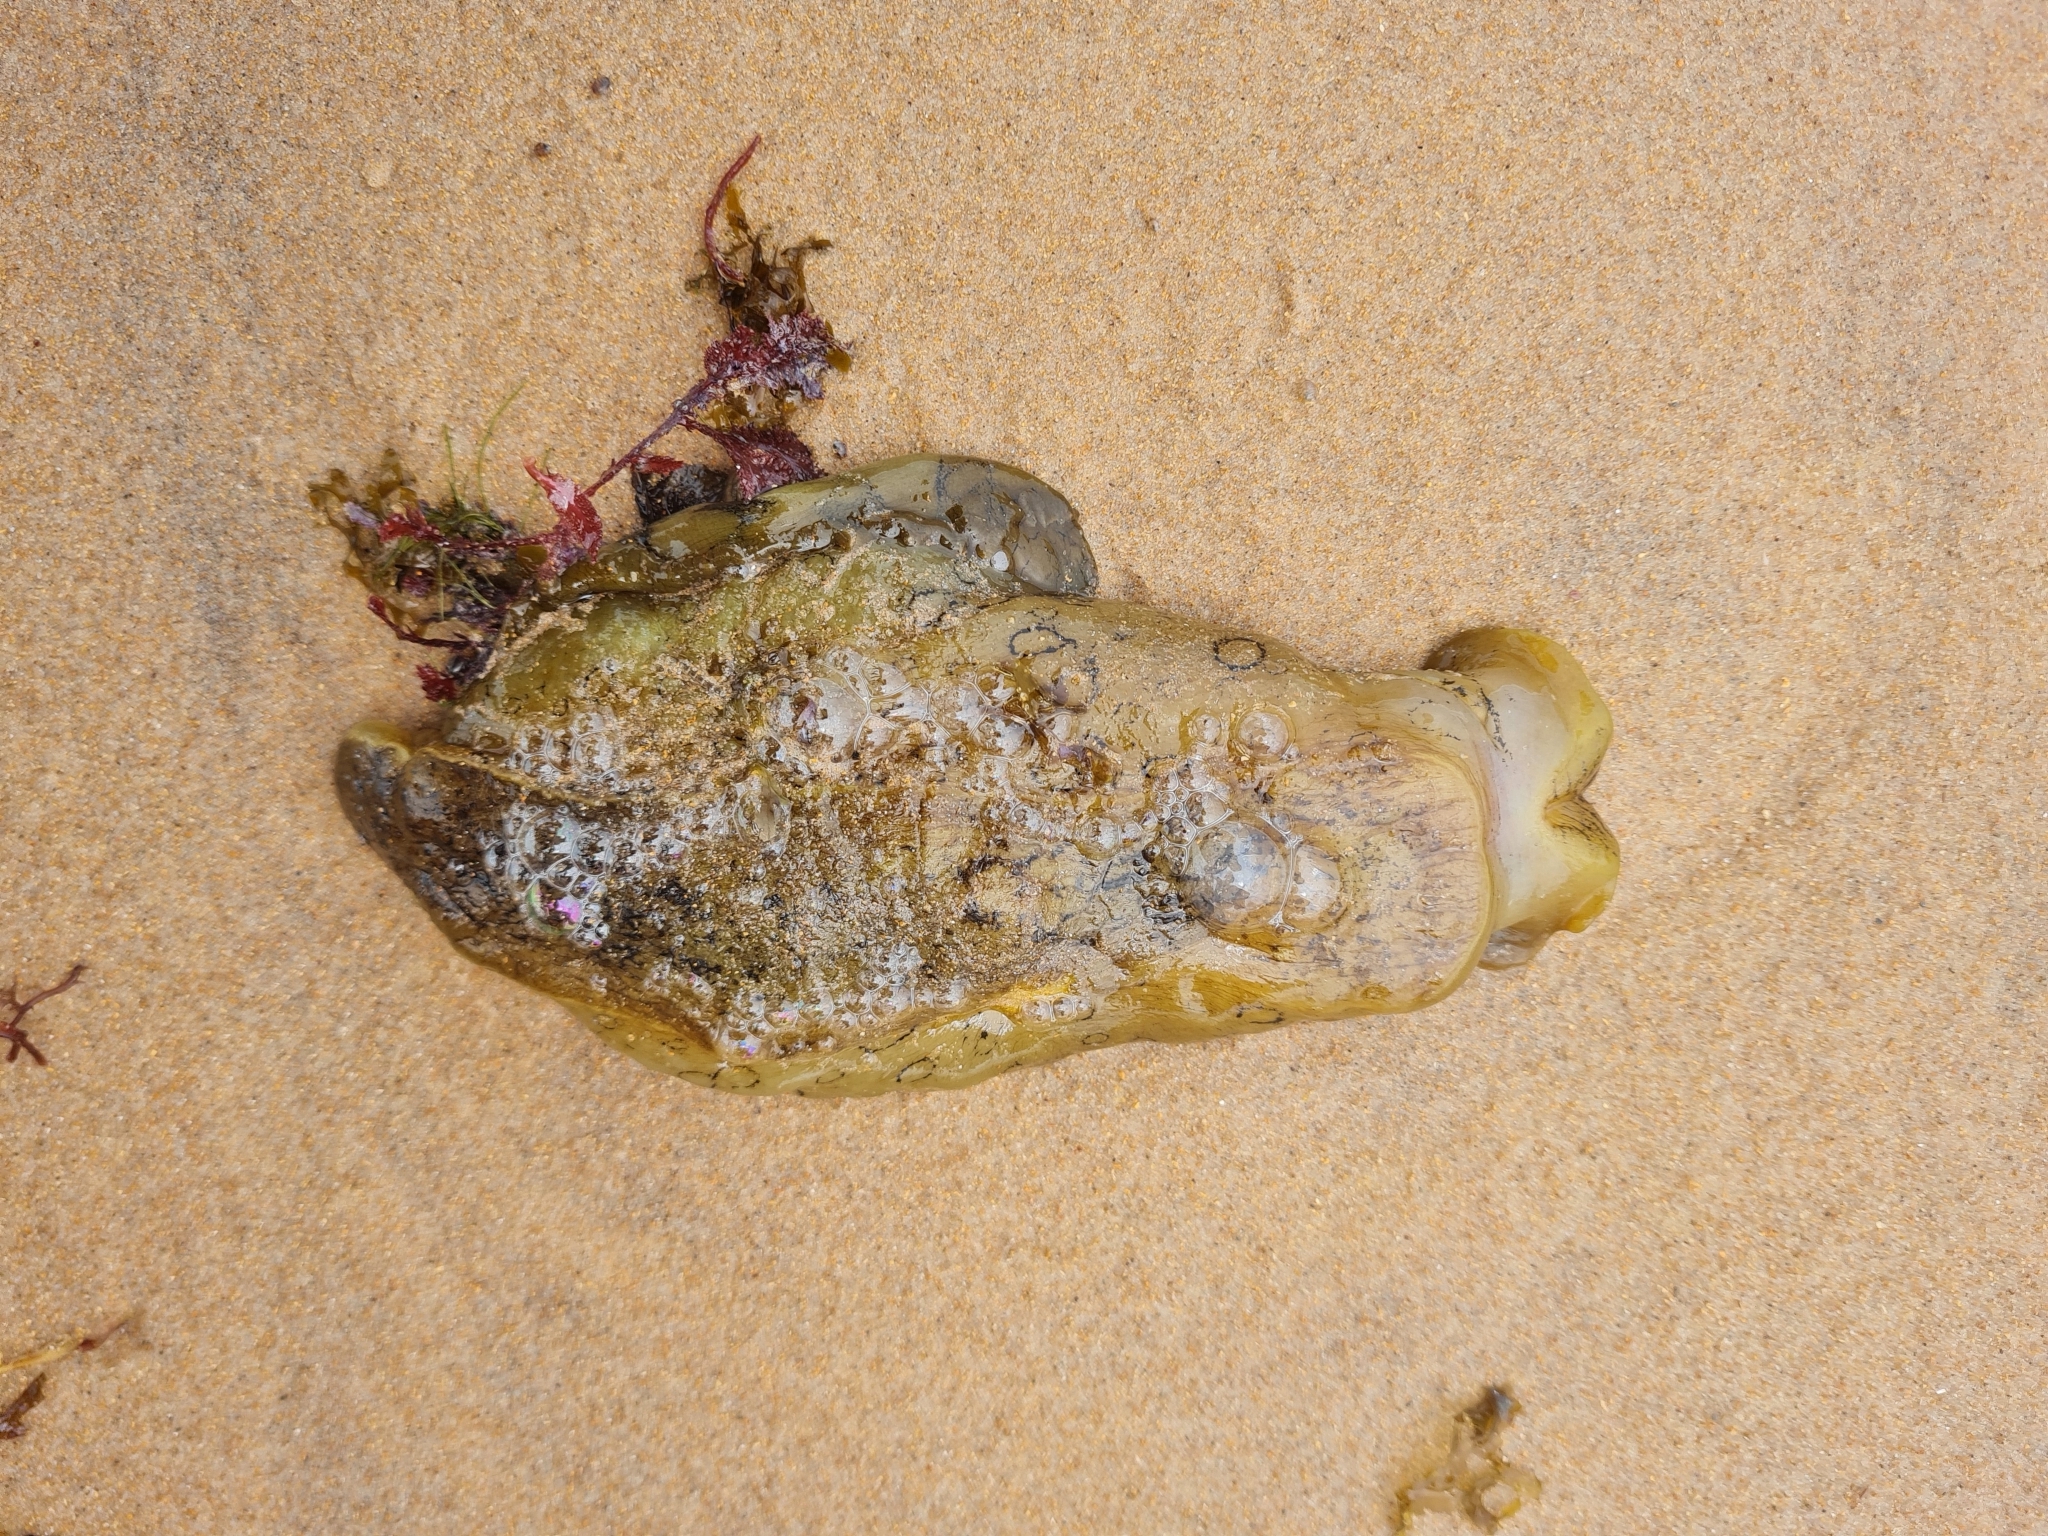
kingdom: Animalia
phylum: Mollusca
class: Gastropoda
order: Aplysiida
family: Aplysiidae
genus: Aplysia
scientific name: Aplysia dactylomela
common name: Large-spotted sea hare
